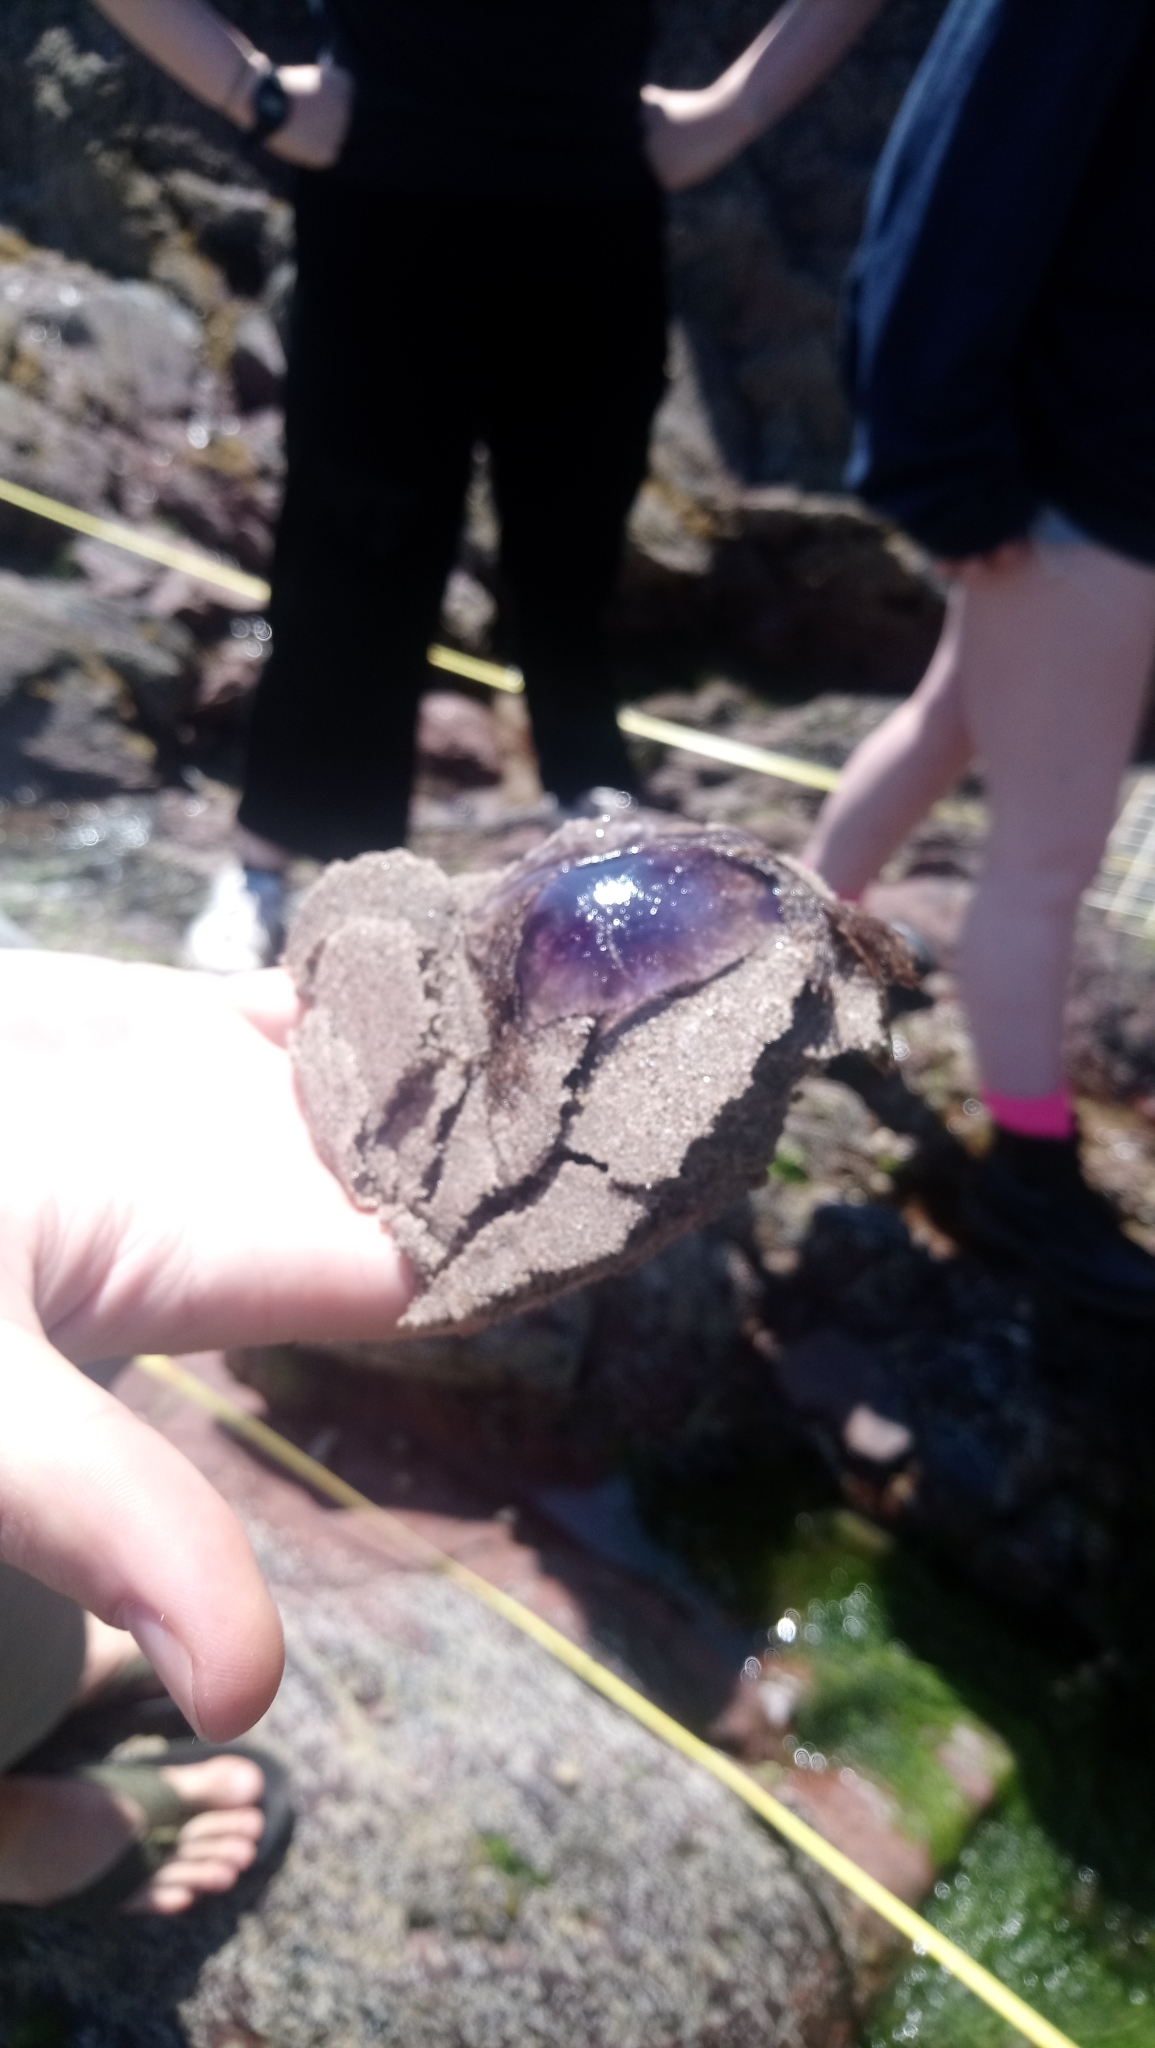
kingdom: Animalia
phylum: Cnidaria
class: Scyphozoa
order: Semaeostomeae
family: Cyaneidae
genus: Cyanea
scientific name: Cyanea lamarckii
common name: Blue jellyfish
